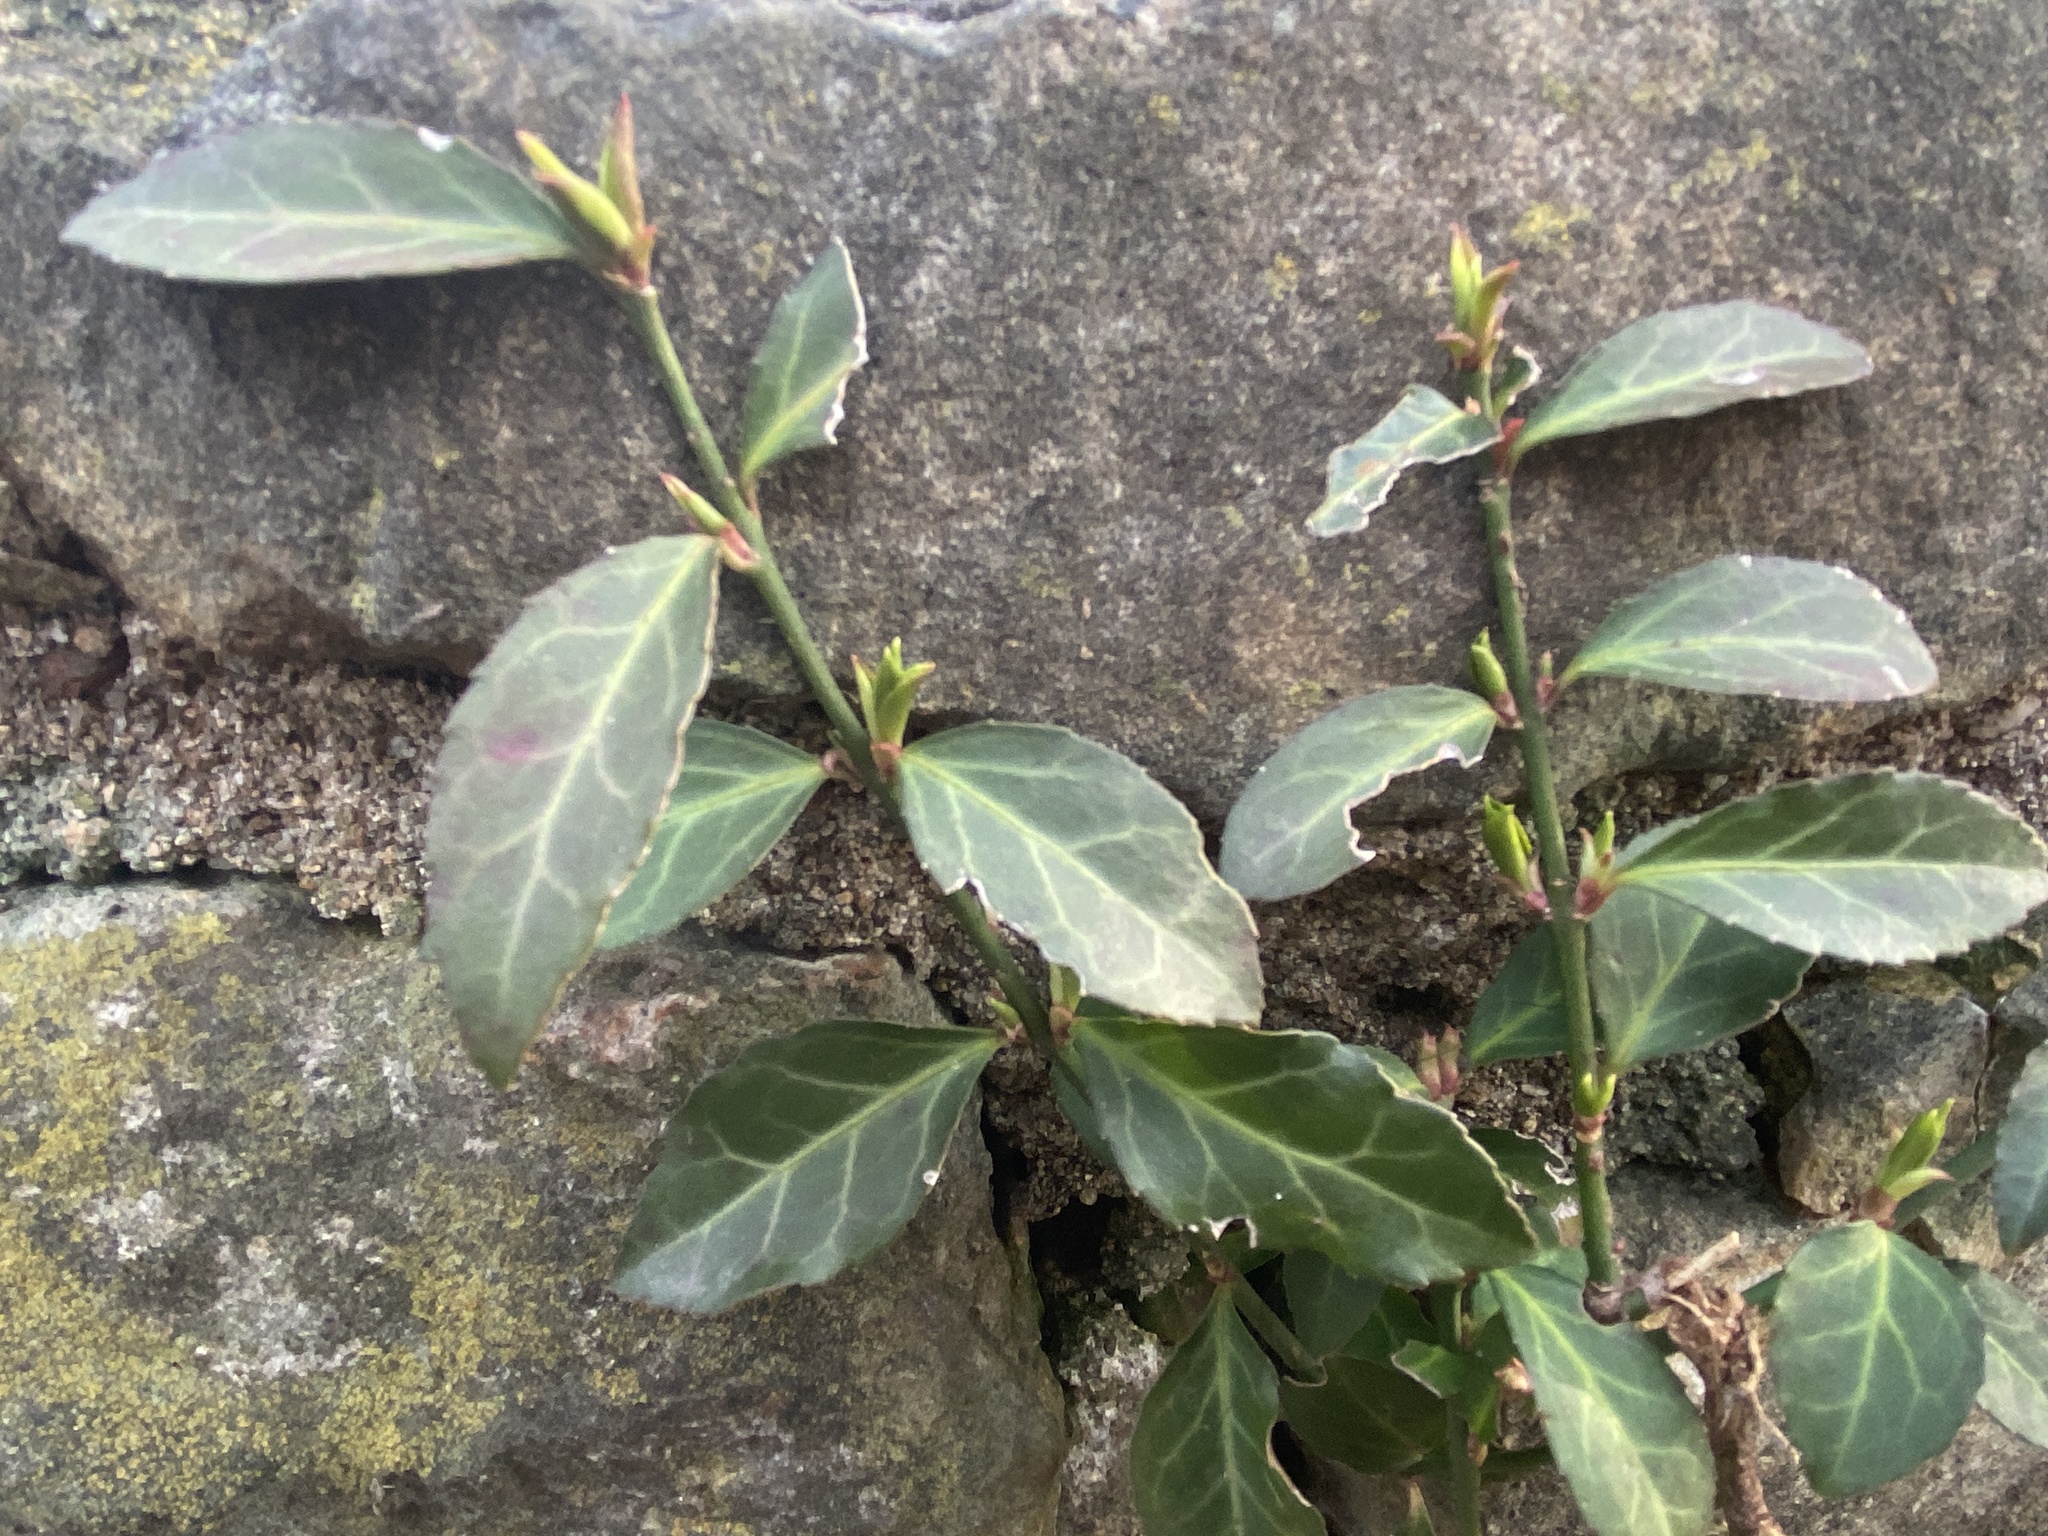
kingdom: Plantae
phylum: Tracheophyta
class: Magnoliopsida
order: Celastrales
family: Celastraceae
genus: Euonymus
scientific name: Euonymus fortunei
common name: Climbing euonymus
